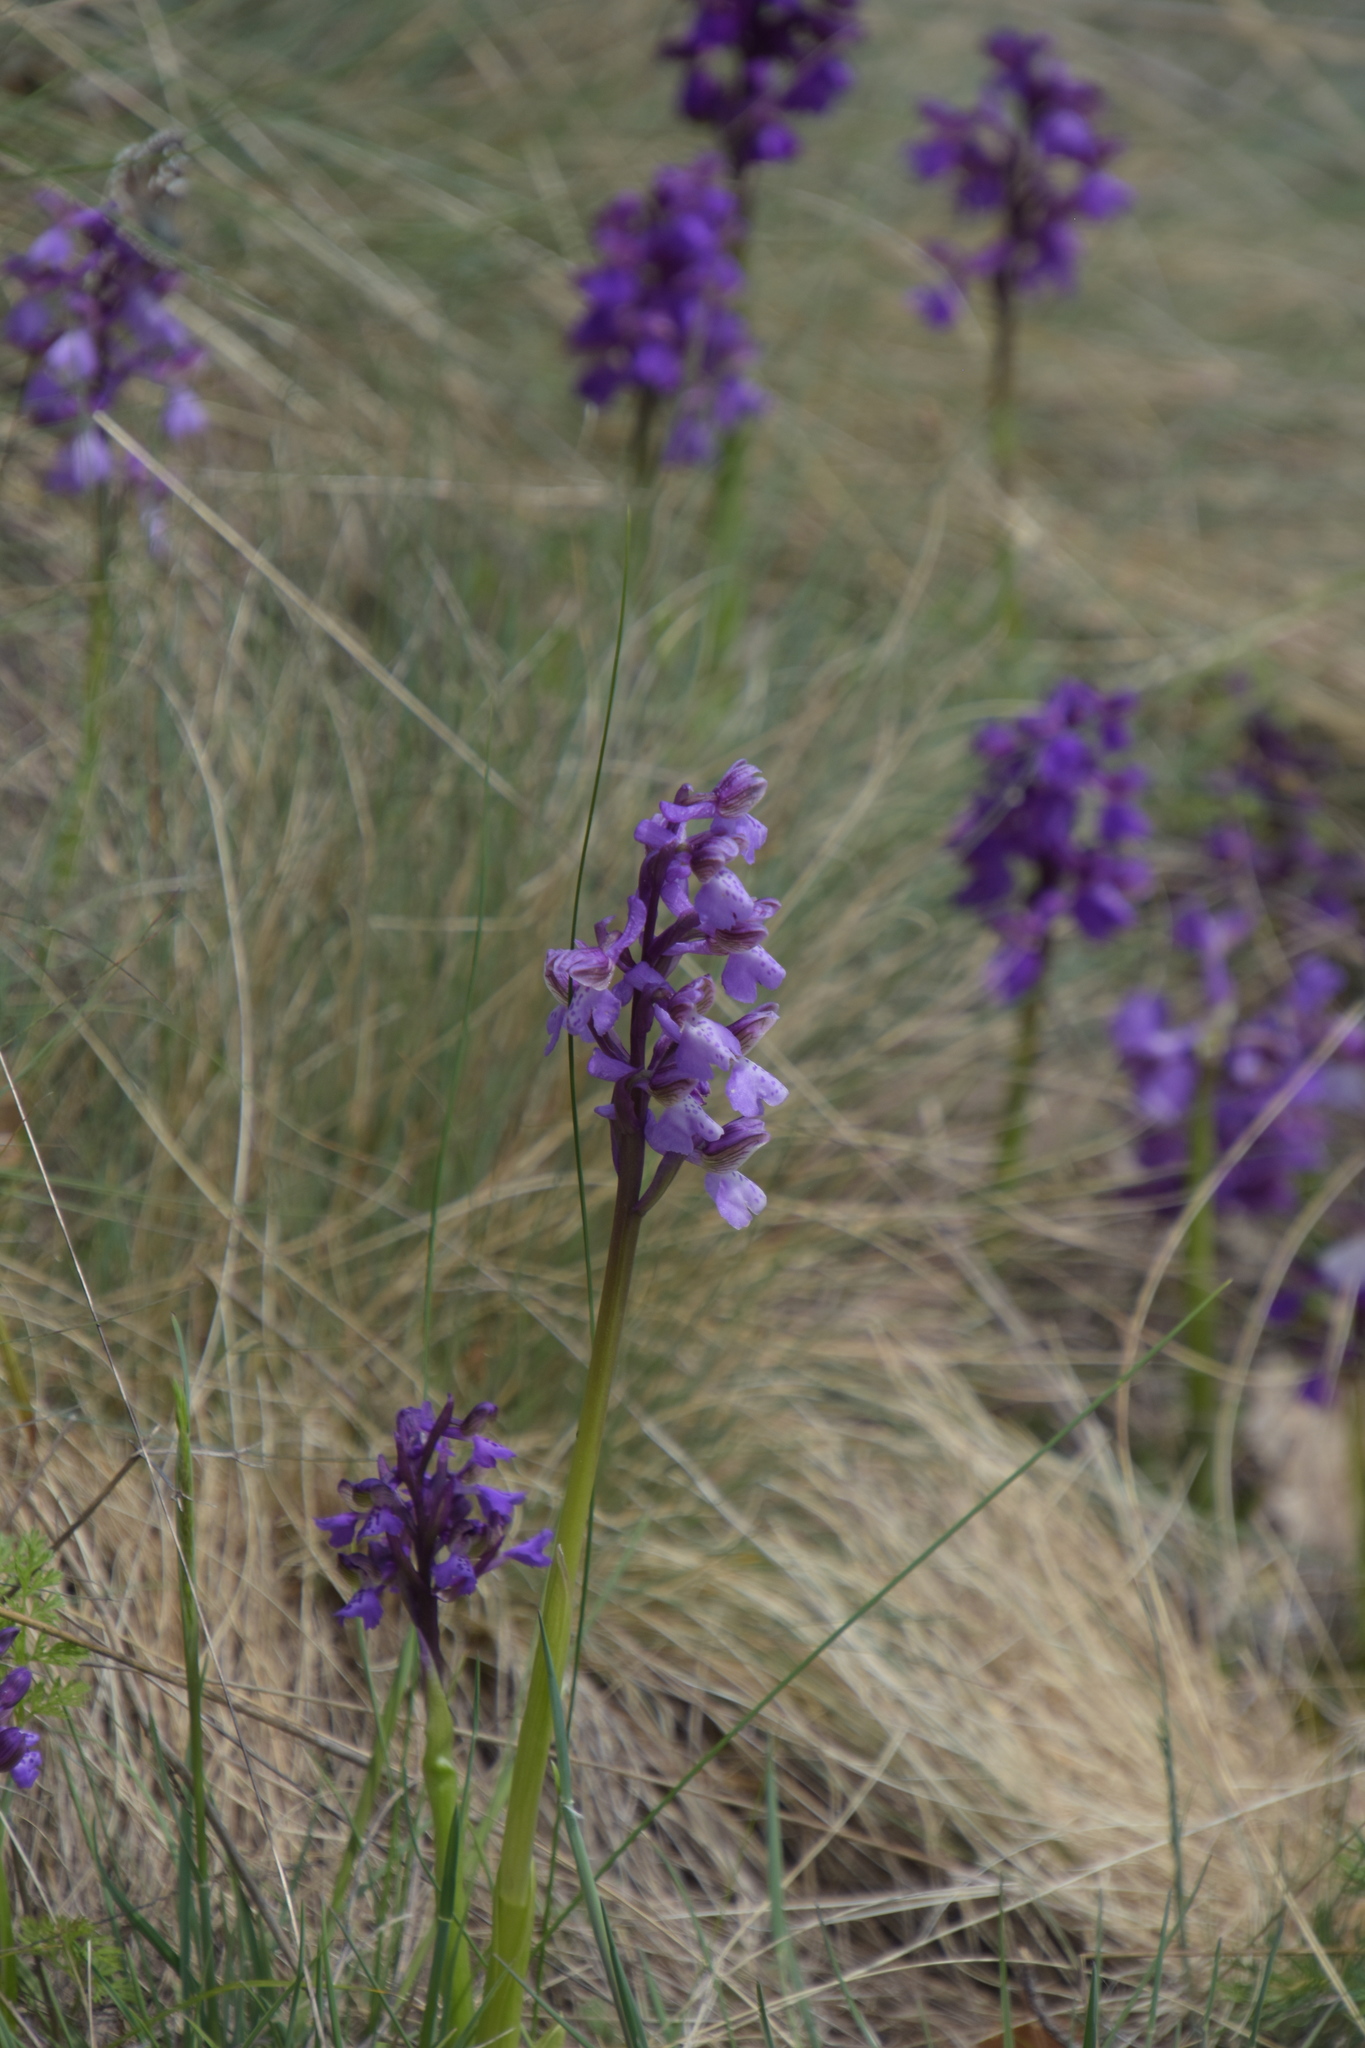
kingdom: Plantae
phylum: Tracheophyta
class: Liliopsida
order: Asparagales
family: Orchidaceae
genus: Anacamptis
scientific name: Anacamptis morio
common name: Green-winged orchid
